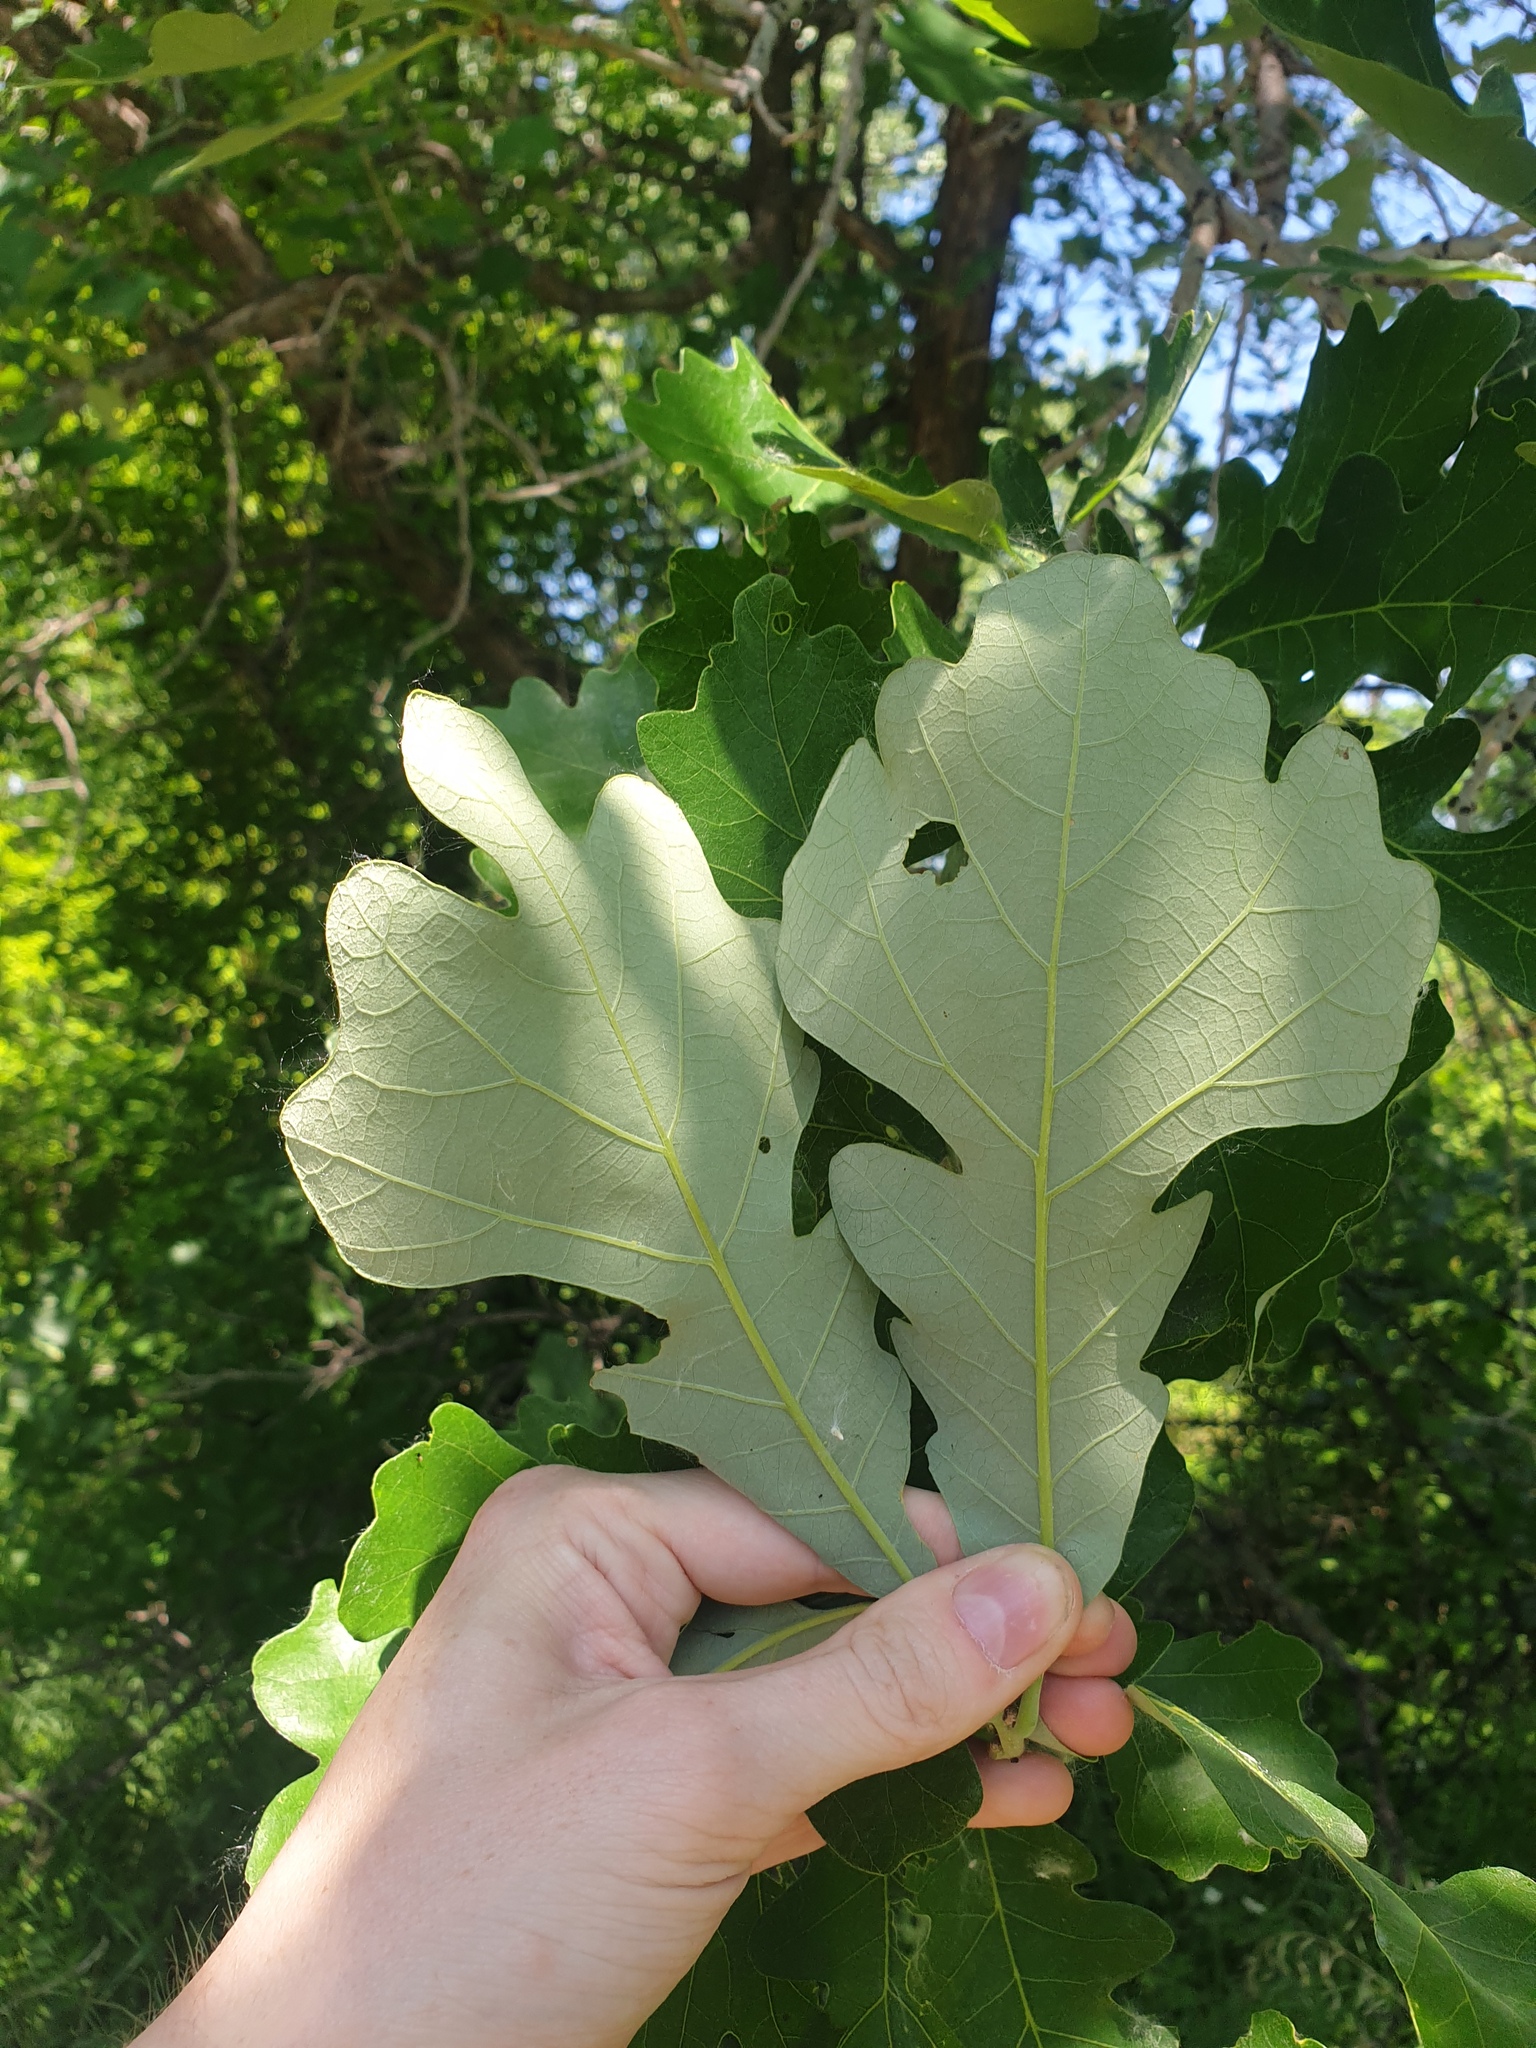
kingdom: Plantae
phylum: Tracheophyta
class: Magnoliopsida
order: Fagales
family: Fagaceae
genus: Quercus
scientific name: Quercus macrocarpa
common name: Bur oak
